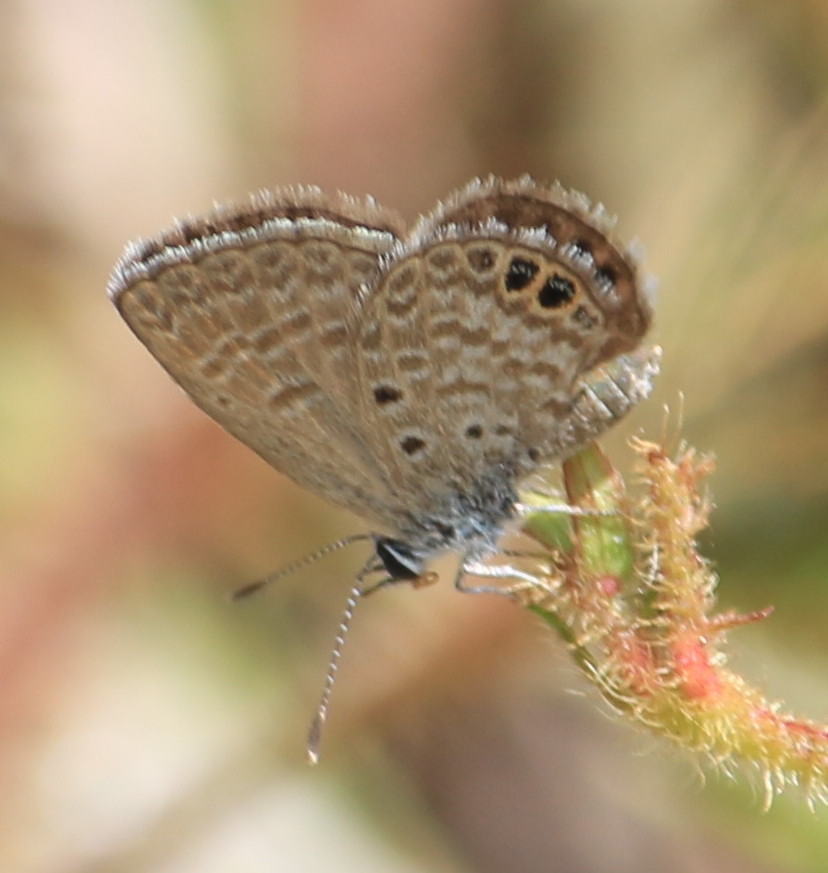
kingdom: Animalia
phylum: Arthropoda
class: Insecta
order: Lepidoptera
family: Lycaenidae
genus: Hemiargus
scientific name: Hemiargus ceraunus
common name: Ceraunus blue
